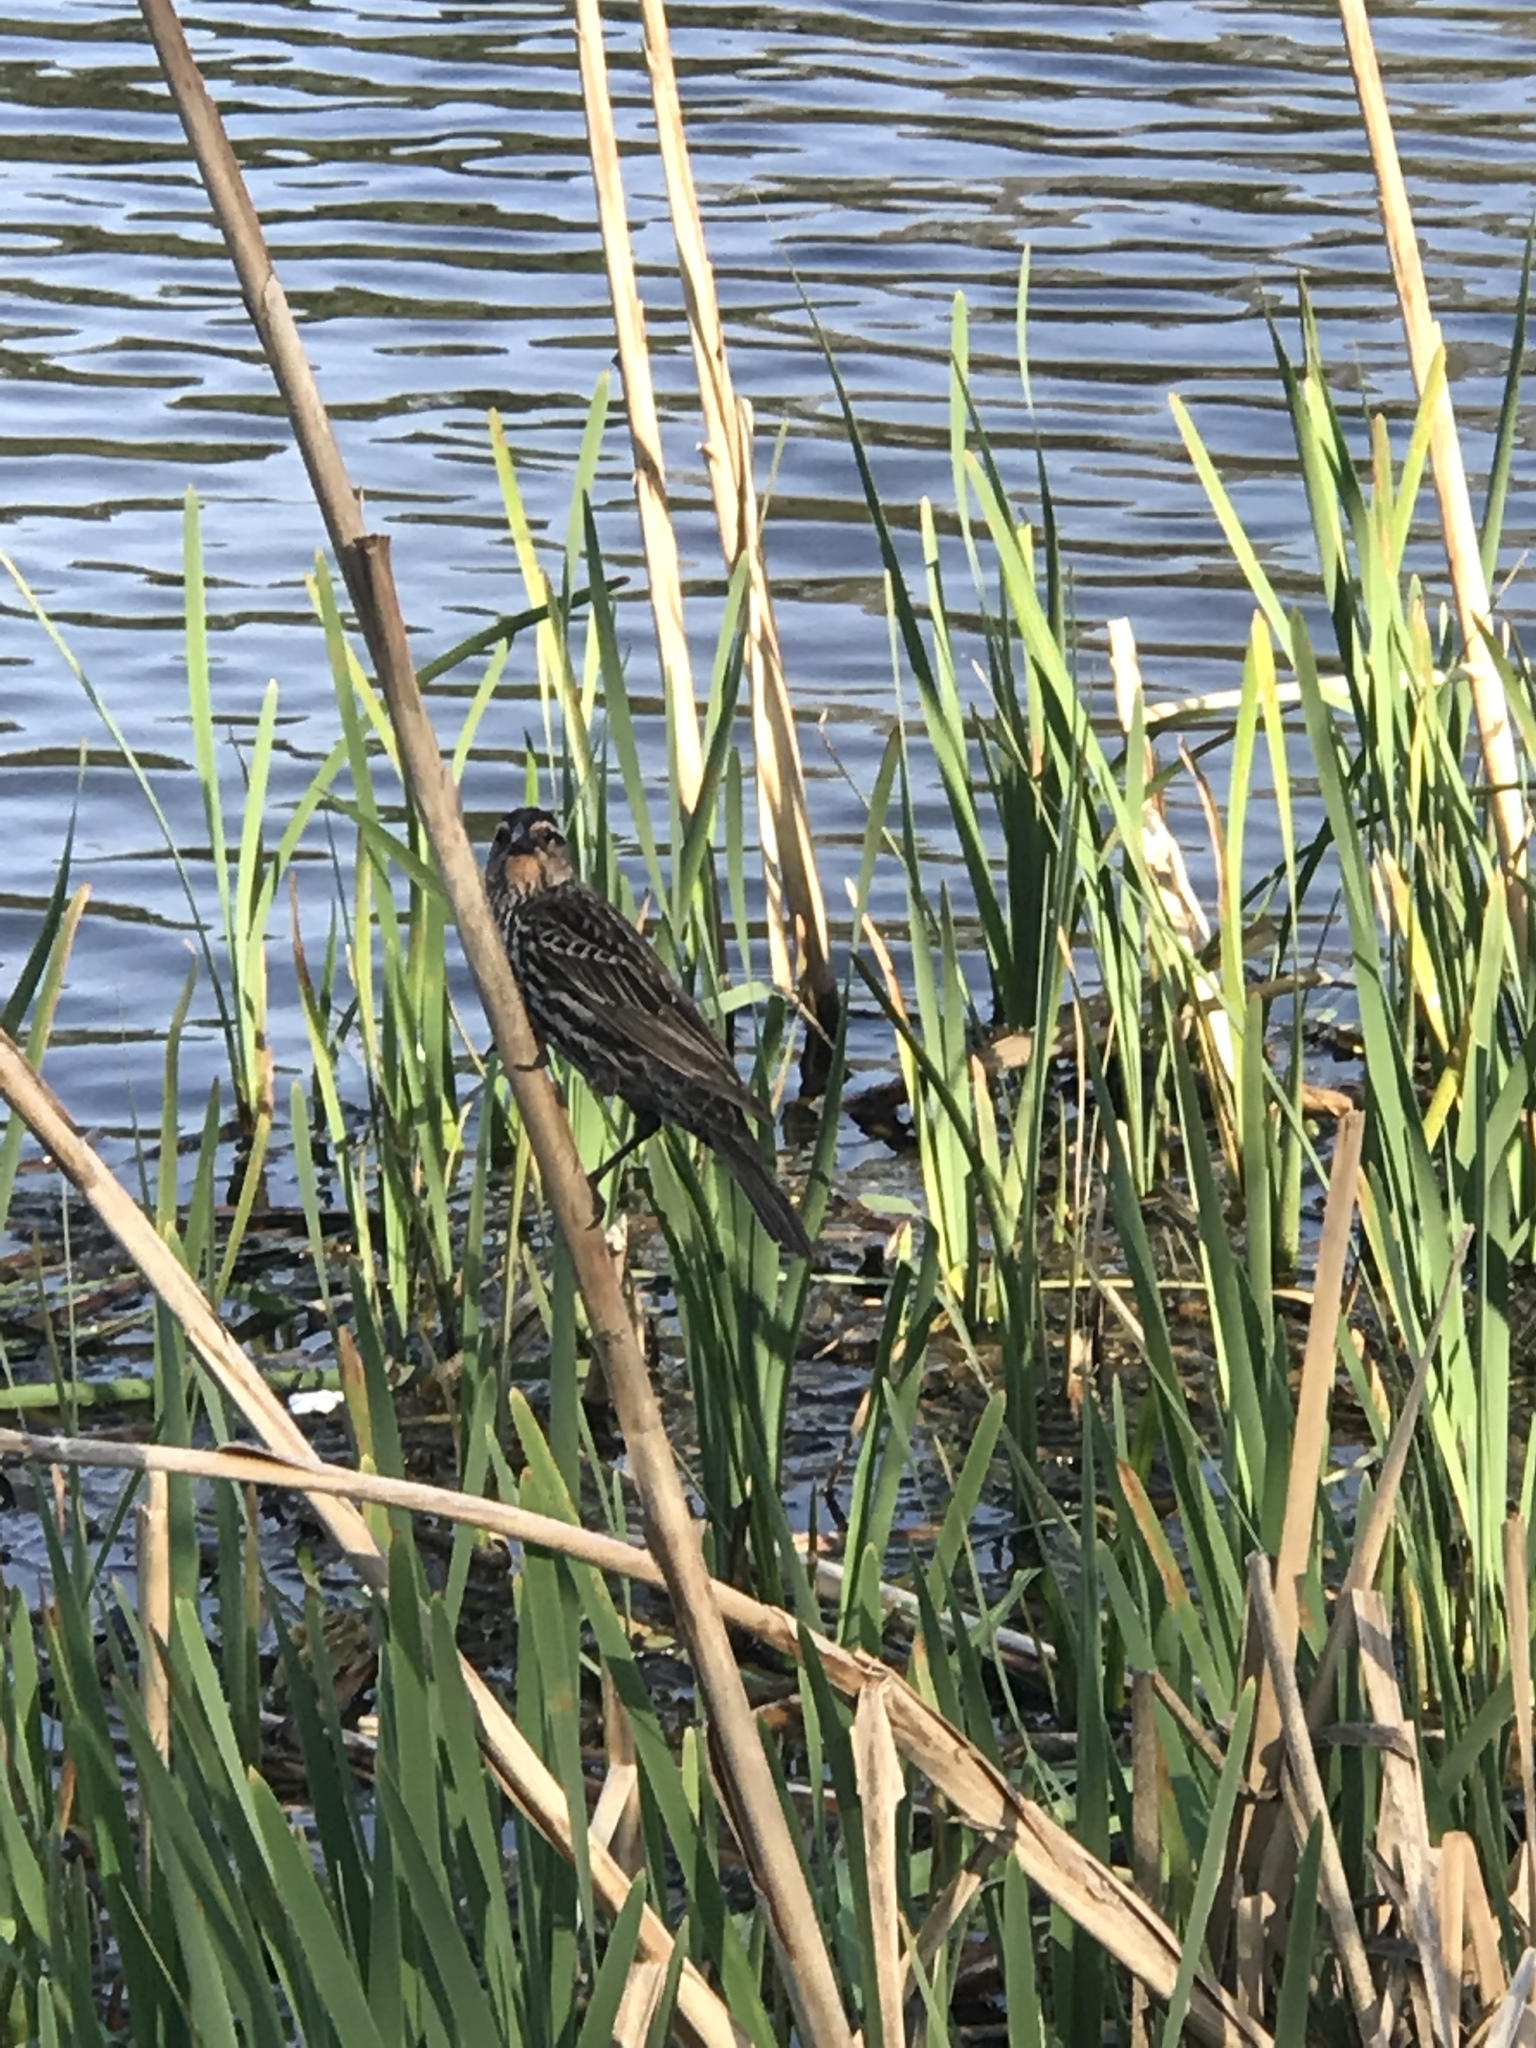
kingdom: Animalia
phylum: Chordata
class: Aves
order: Passeriformes
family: Icteridae
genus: Agelaius
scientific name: Agelaius phoeniceus
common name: Red-winged blackbird
